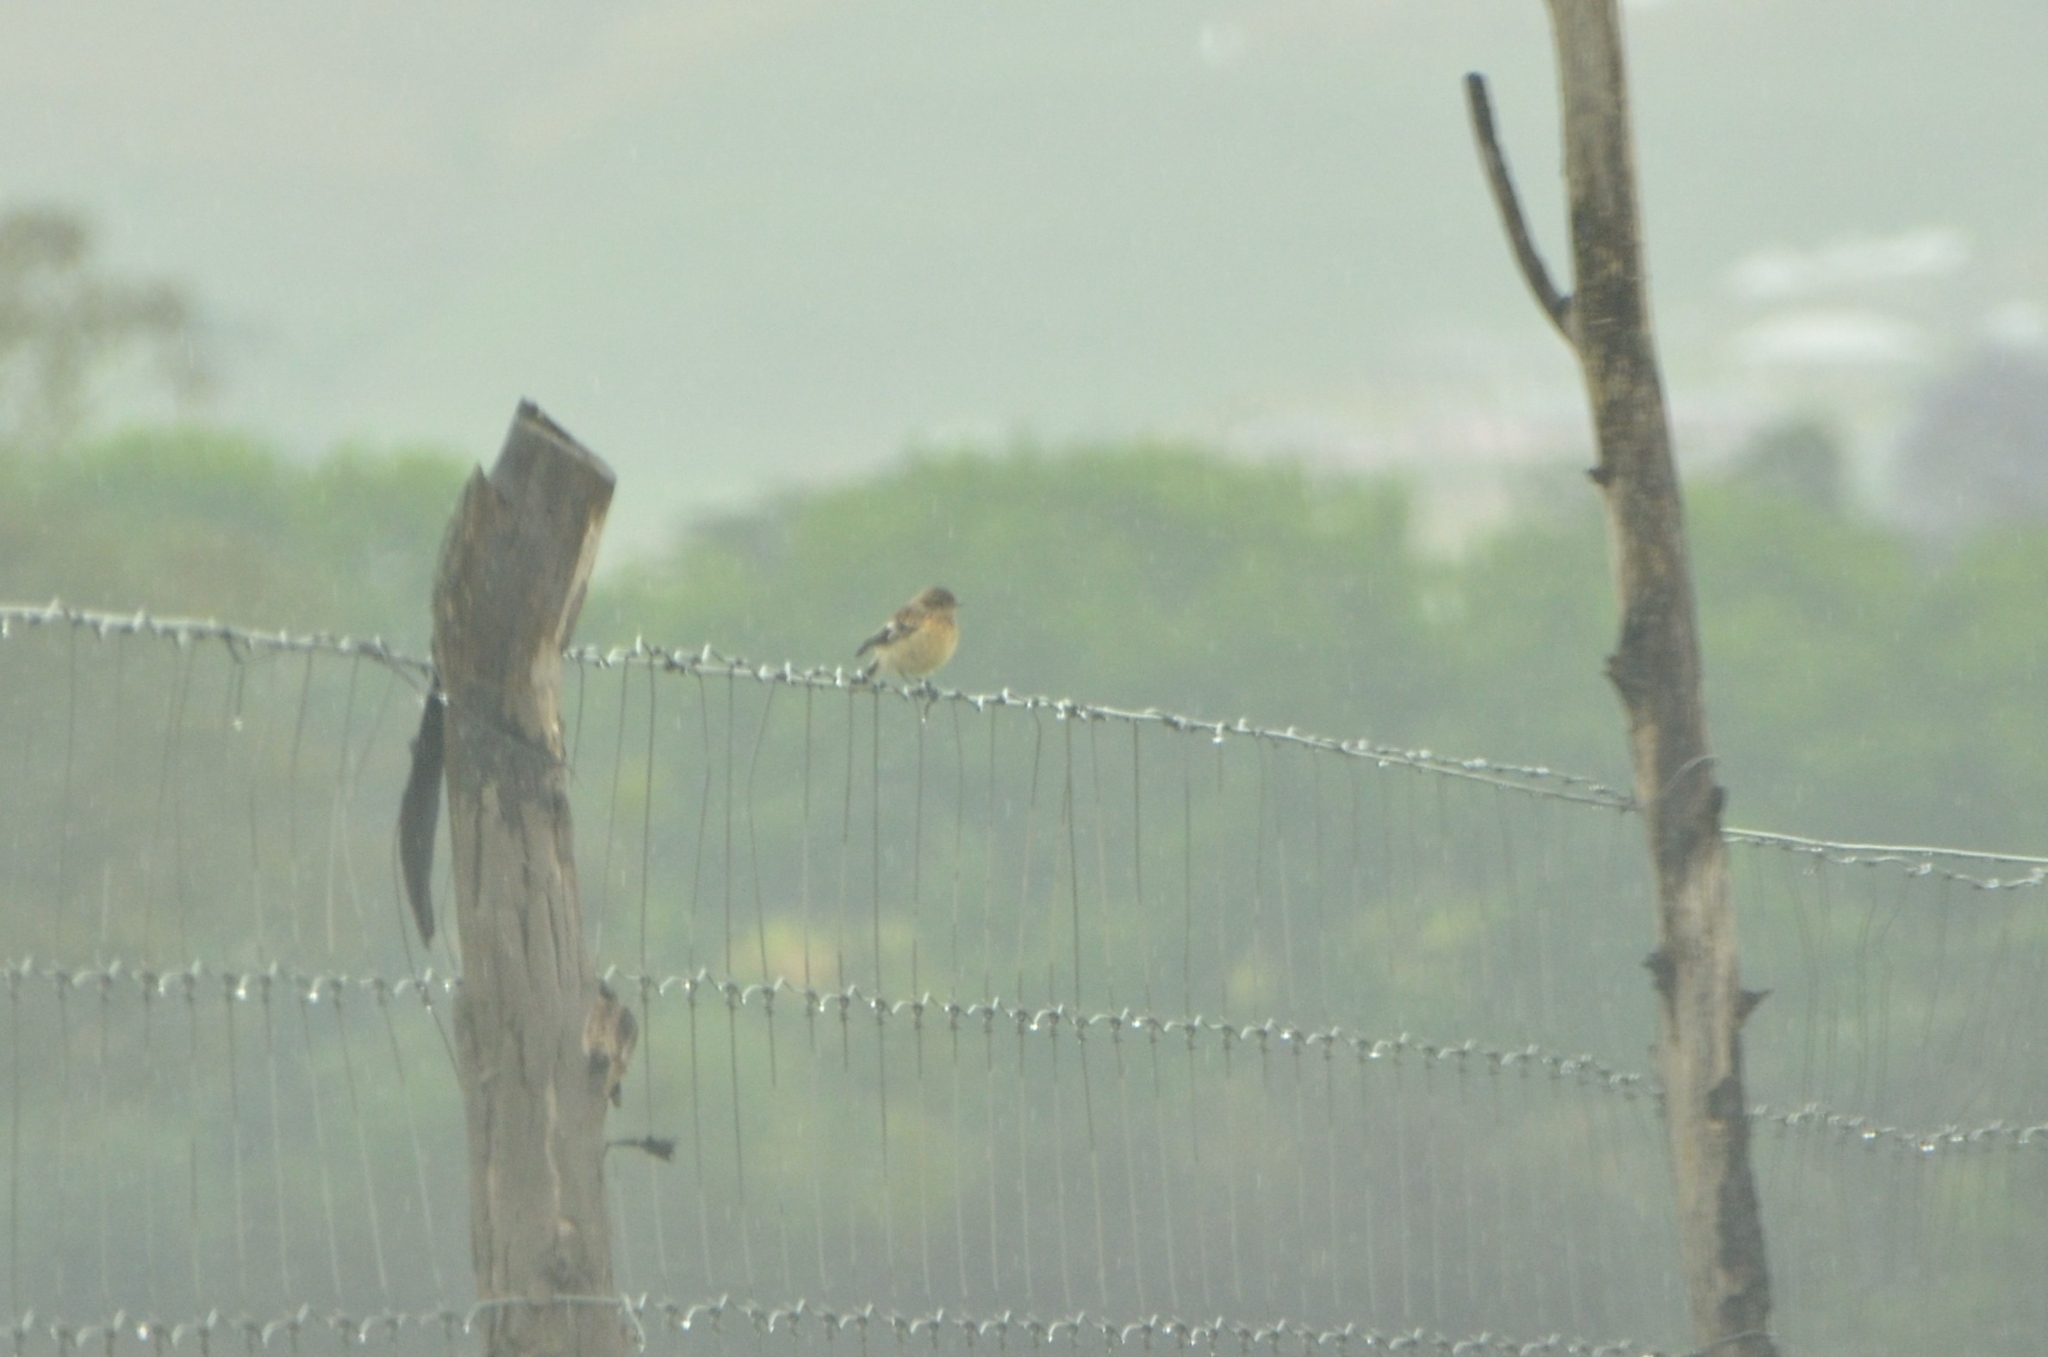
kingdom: Animalia
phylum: Chordata
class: Aves
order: Passeriformes
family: Muscicapidae
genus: Saxicola
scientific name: Saxicola torquatus
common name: African stonechat
